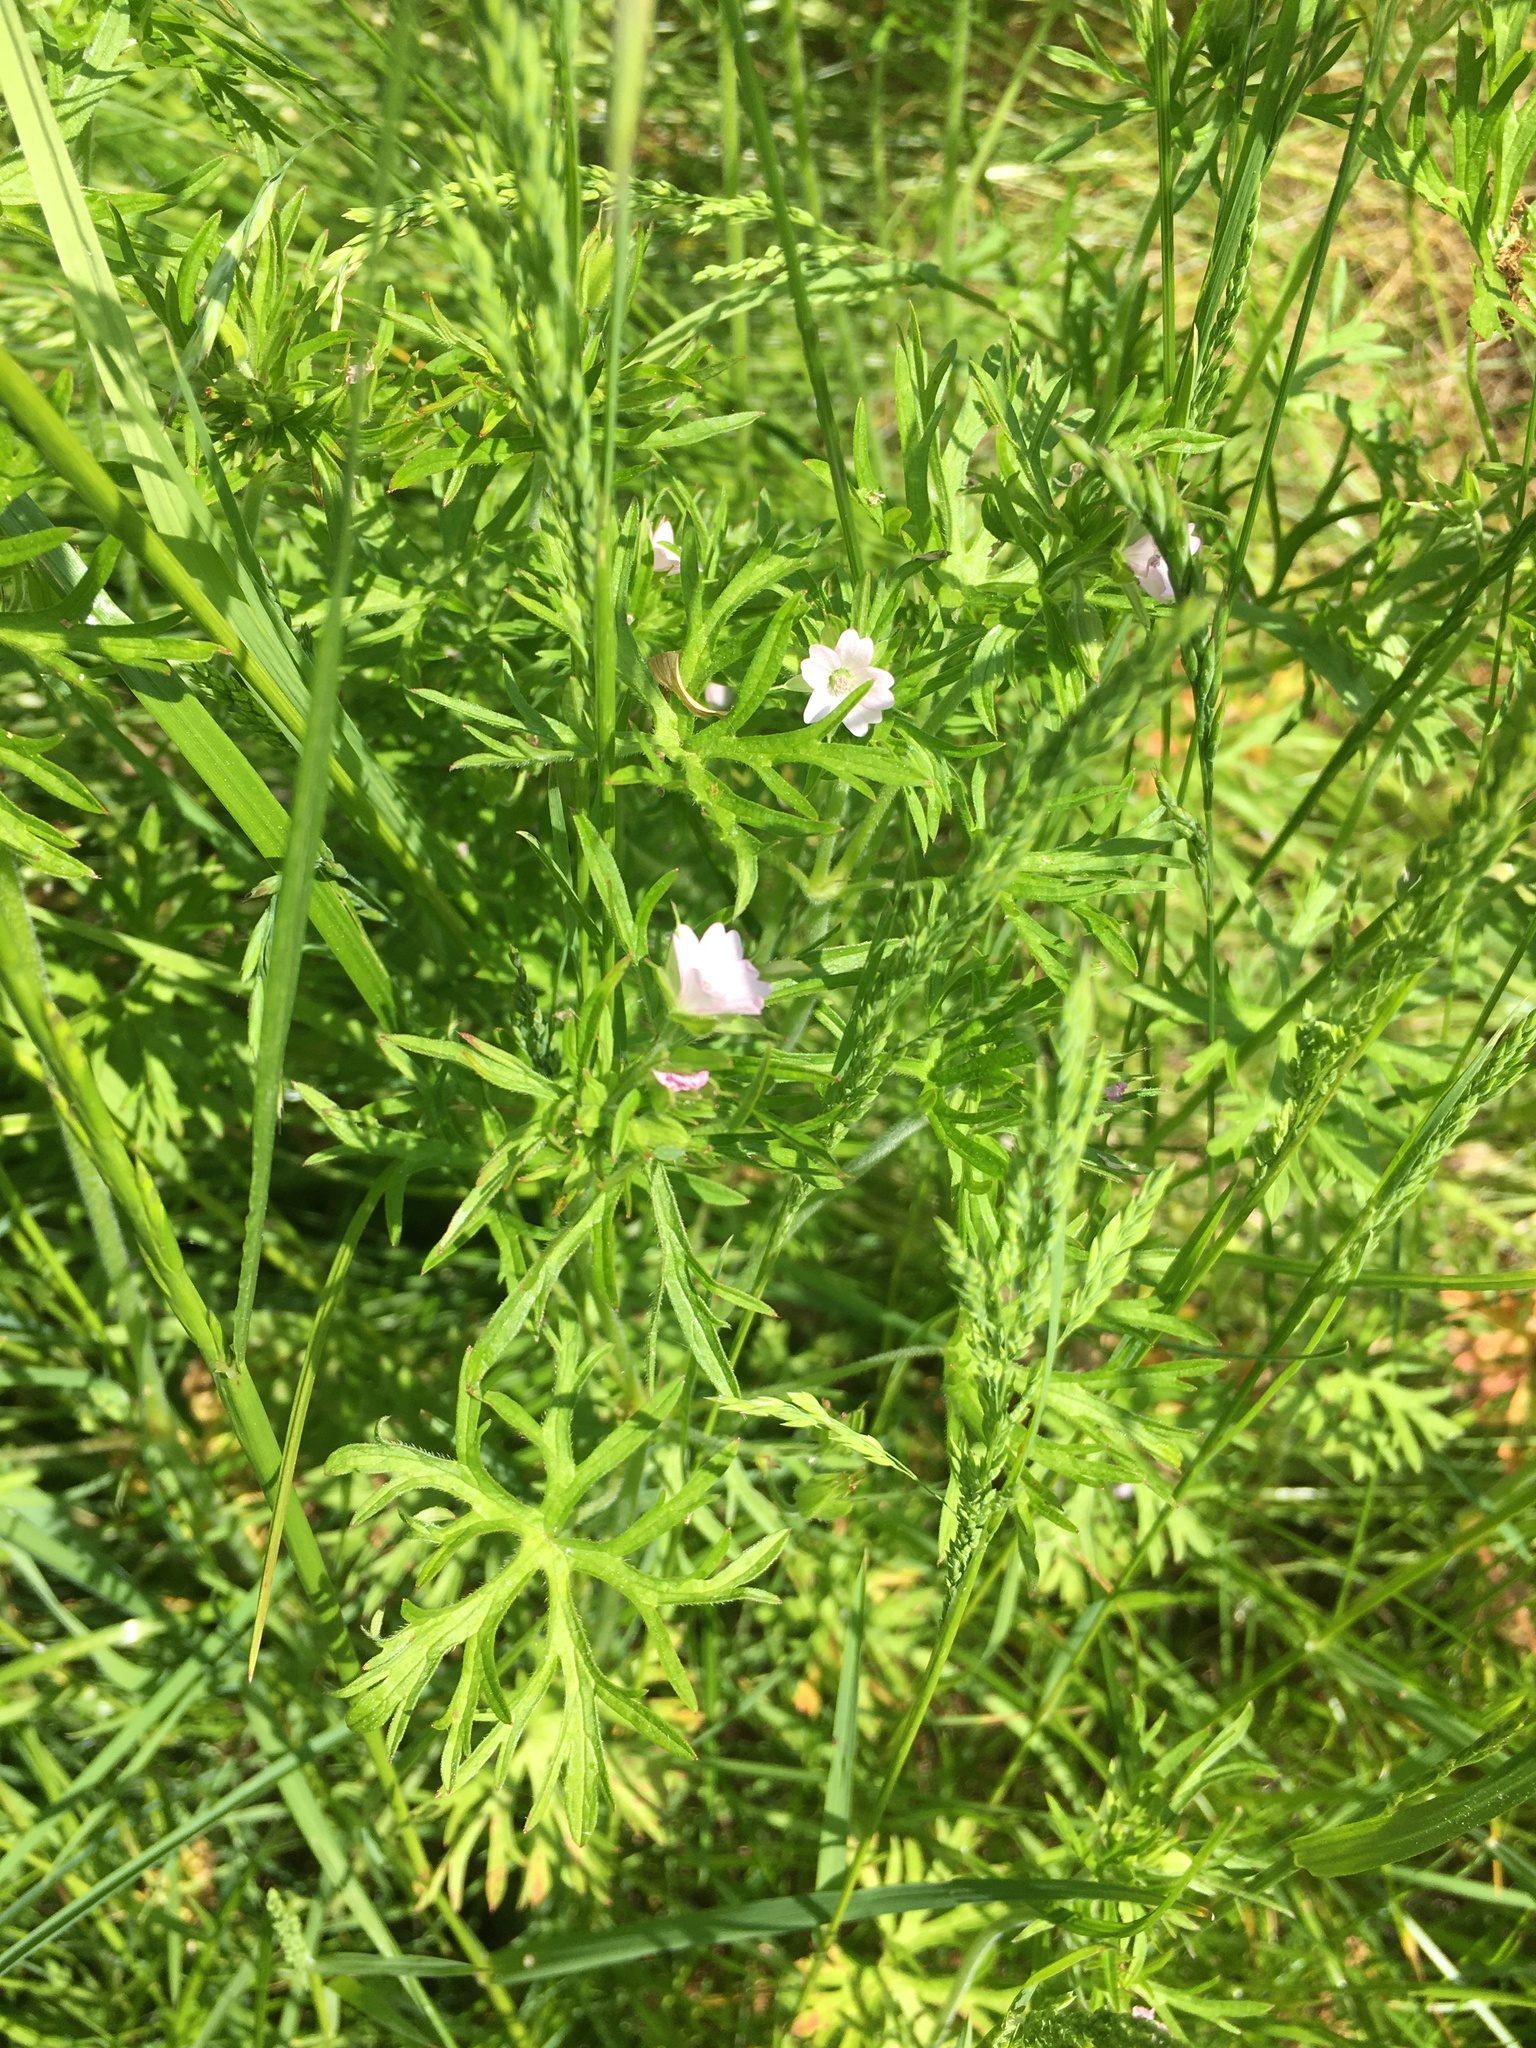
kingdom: Plantae
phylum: Tracheophyta
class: Magnoliopsida
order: Geraniales
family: Geraniaceae
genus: Geranium
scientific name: Geranium dissectum
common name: Cut-leaved crane's-bill
